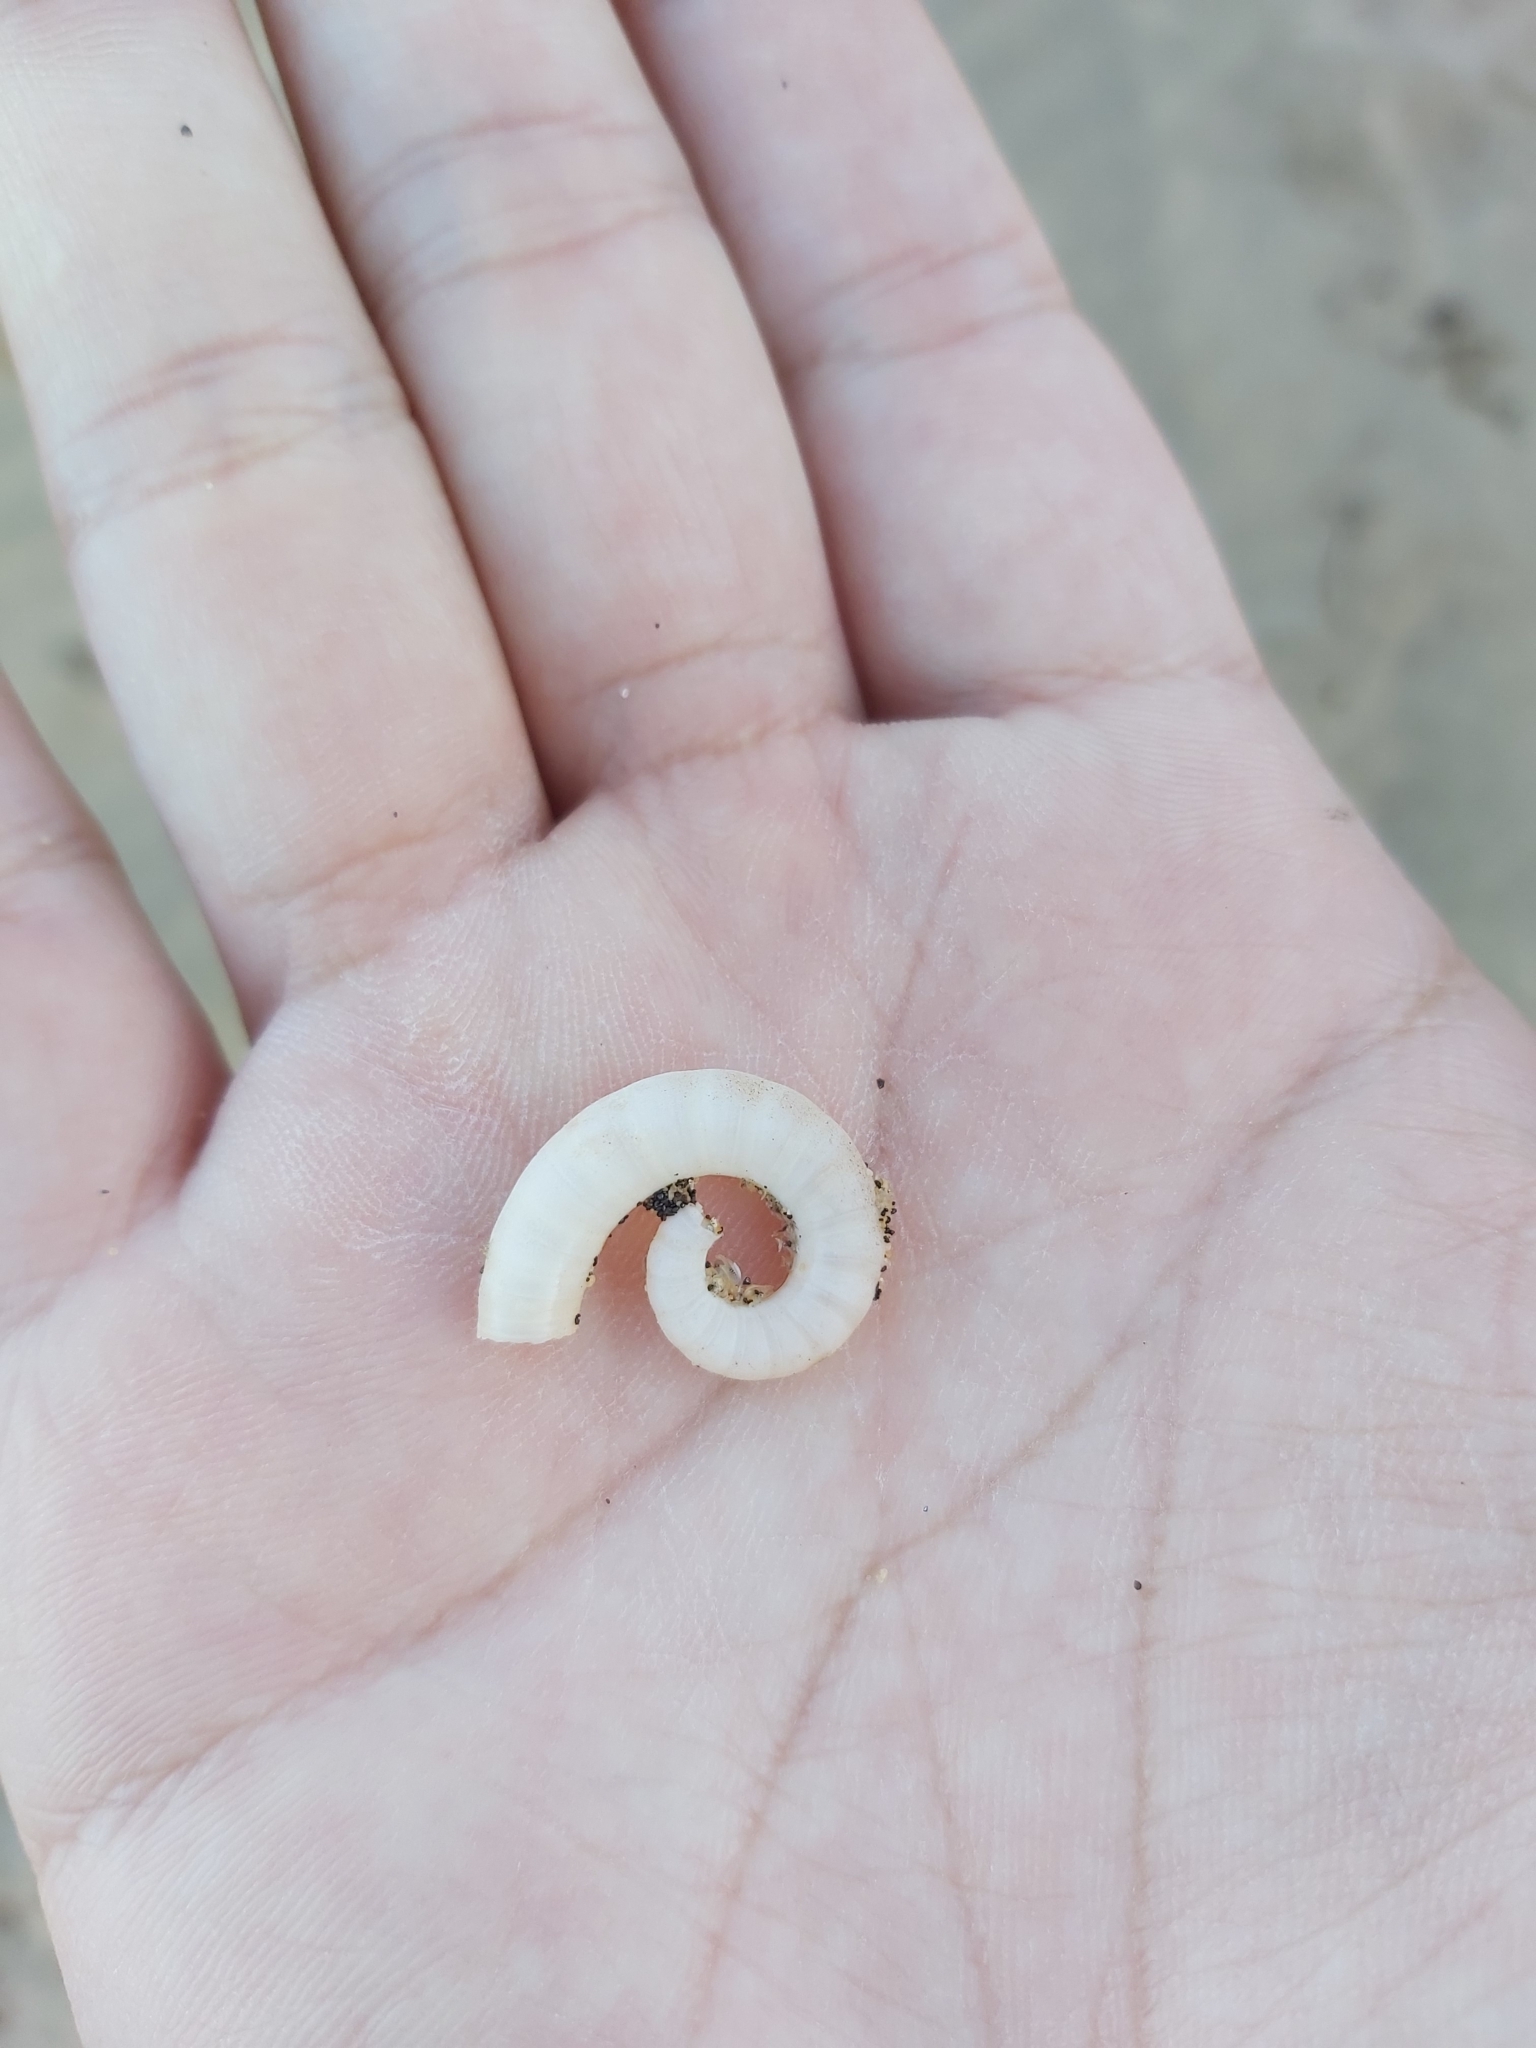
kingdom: Animalia
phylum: Mollusca
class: Cephalopoda
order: Spirulida
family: Spirulidae
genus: Spirula
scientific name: Spirula spirula
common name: Ram's horn squid
